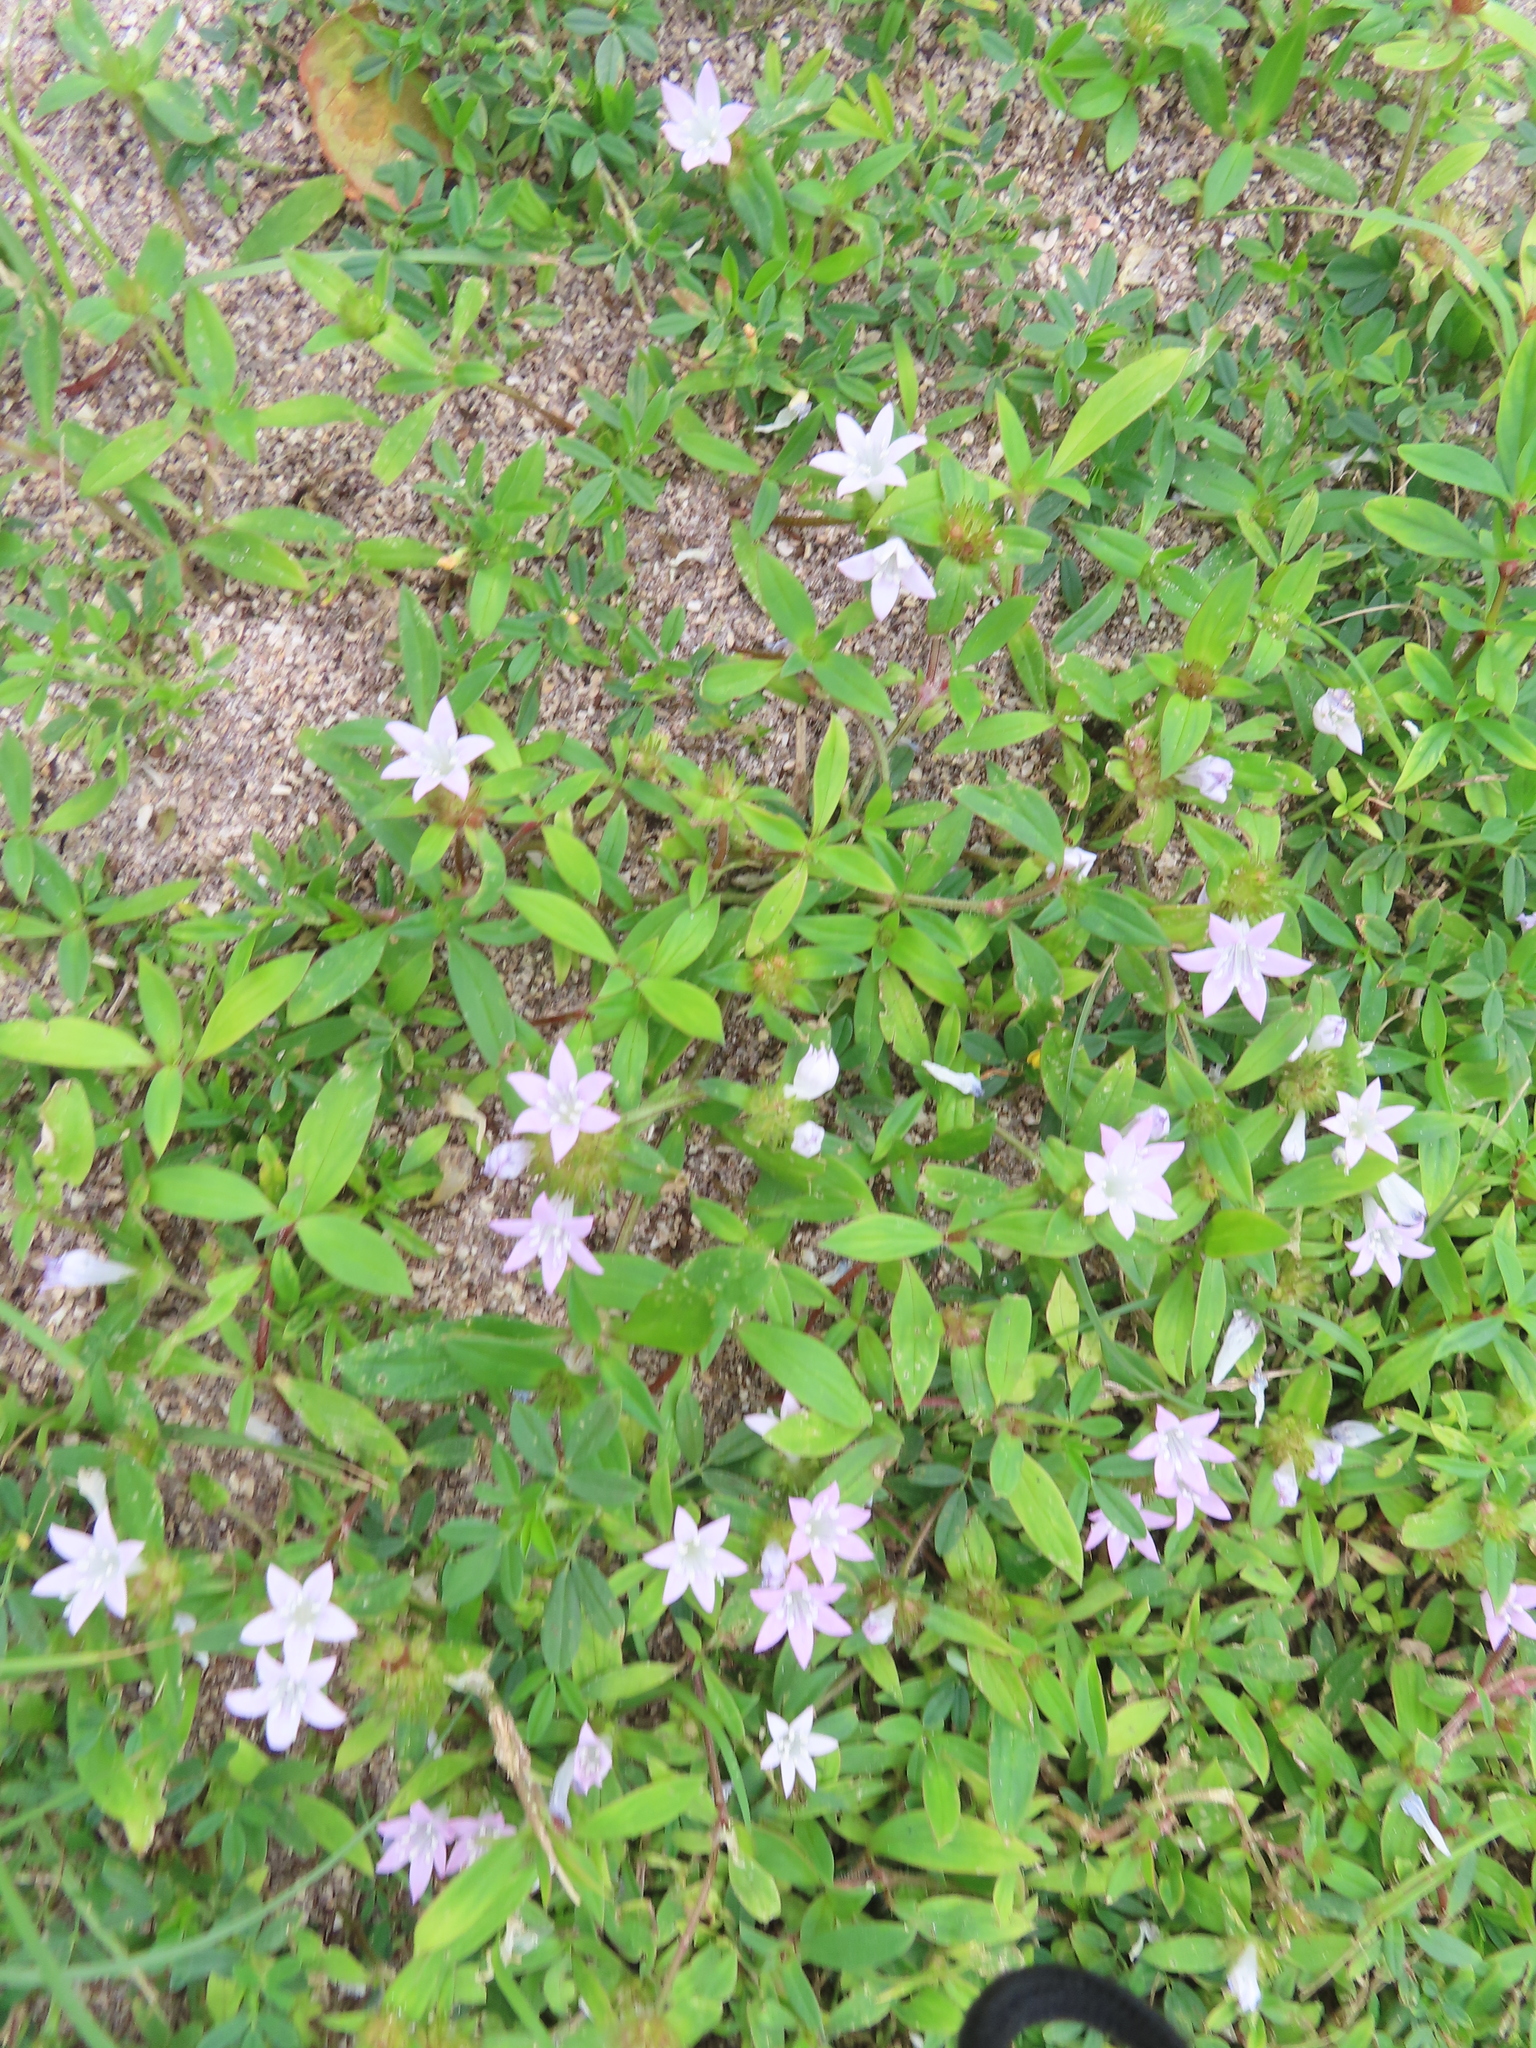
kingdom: Plantae
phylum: Tracheophyta
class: Magnoliopsida
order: Gentianales
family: Rubiaceae
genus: Richardia
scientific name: Richardia grandiflora
